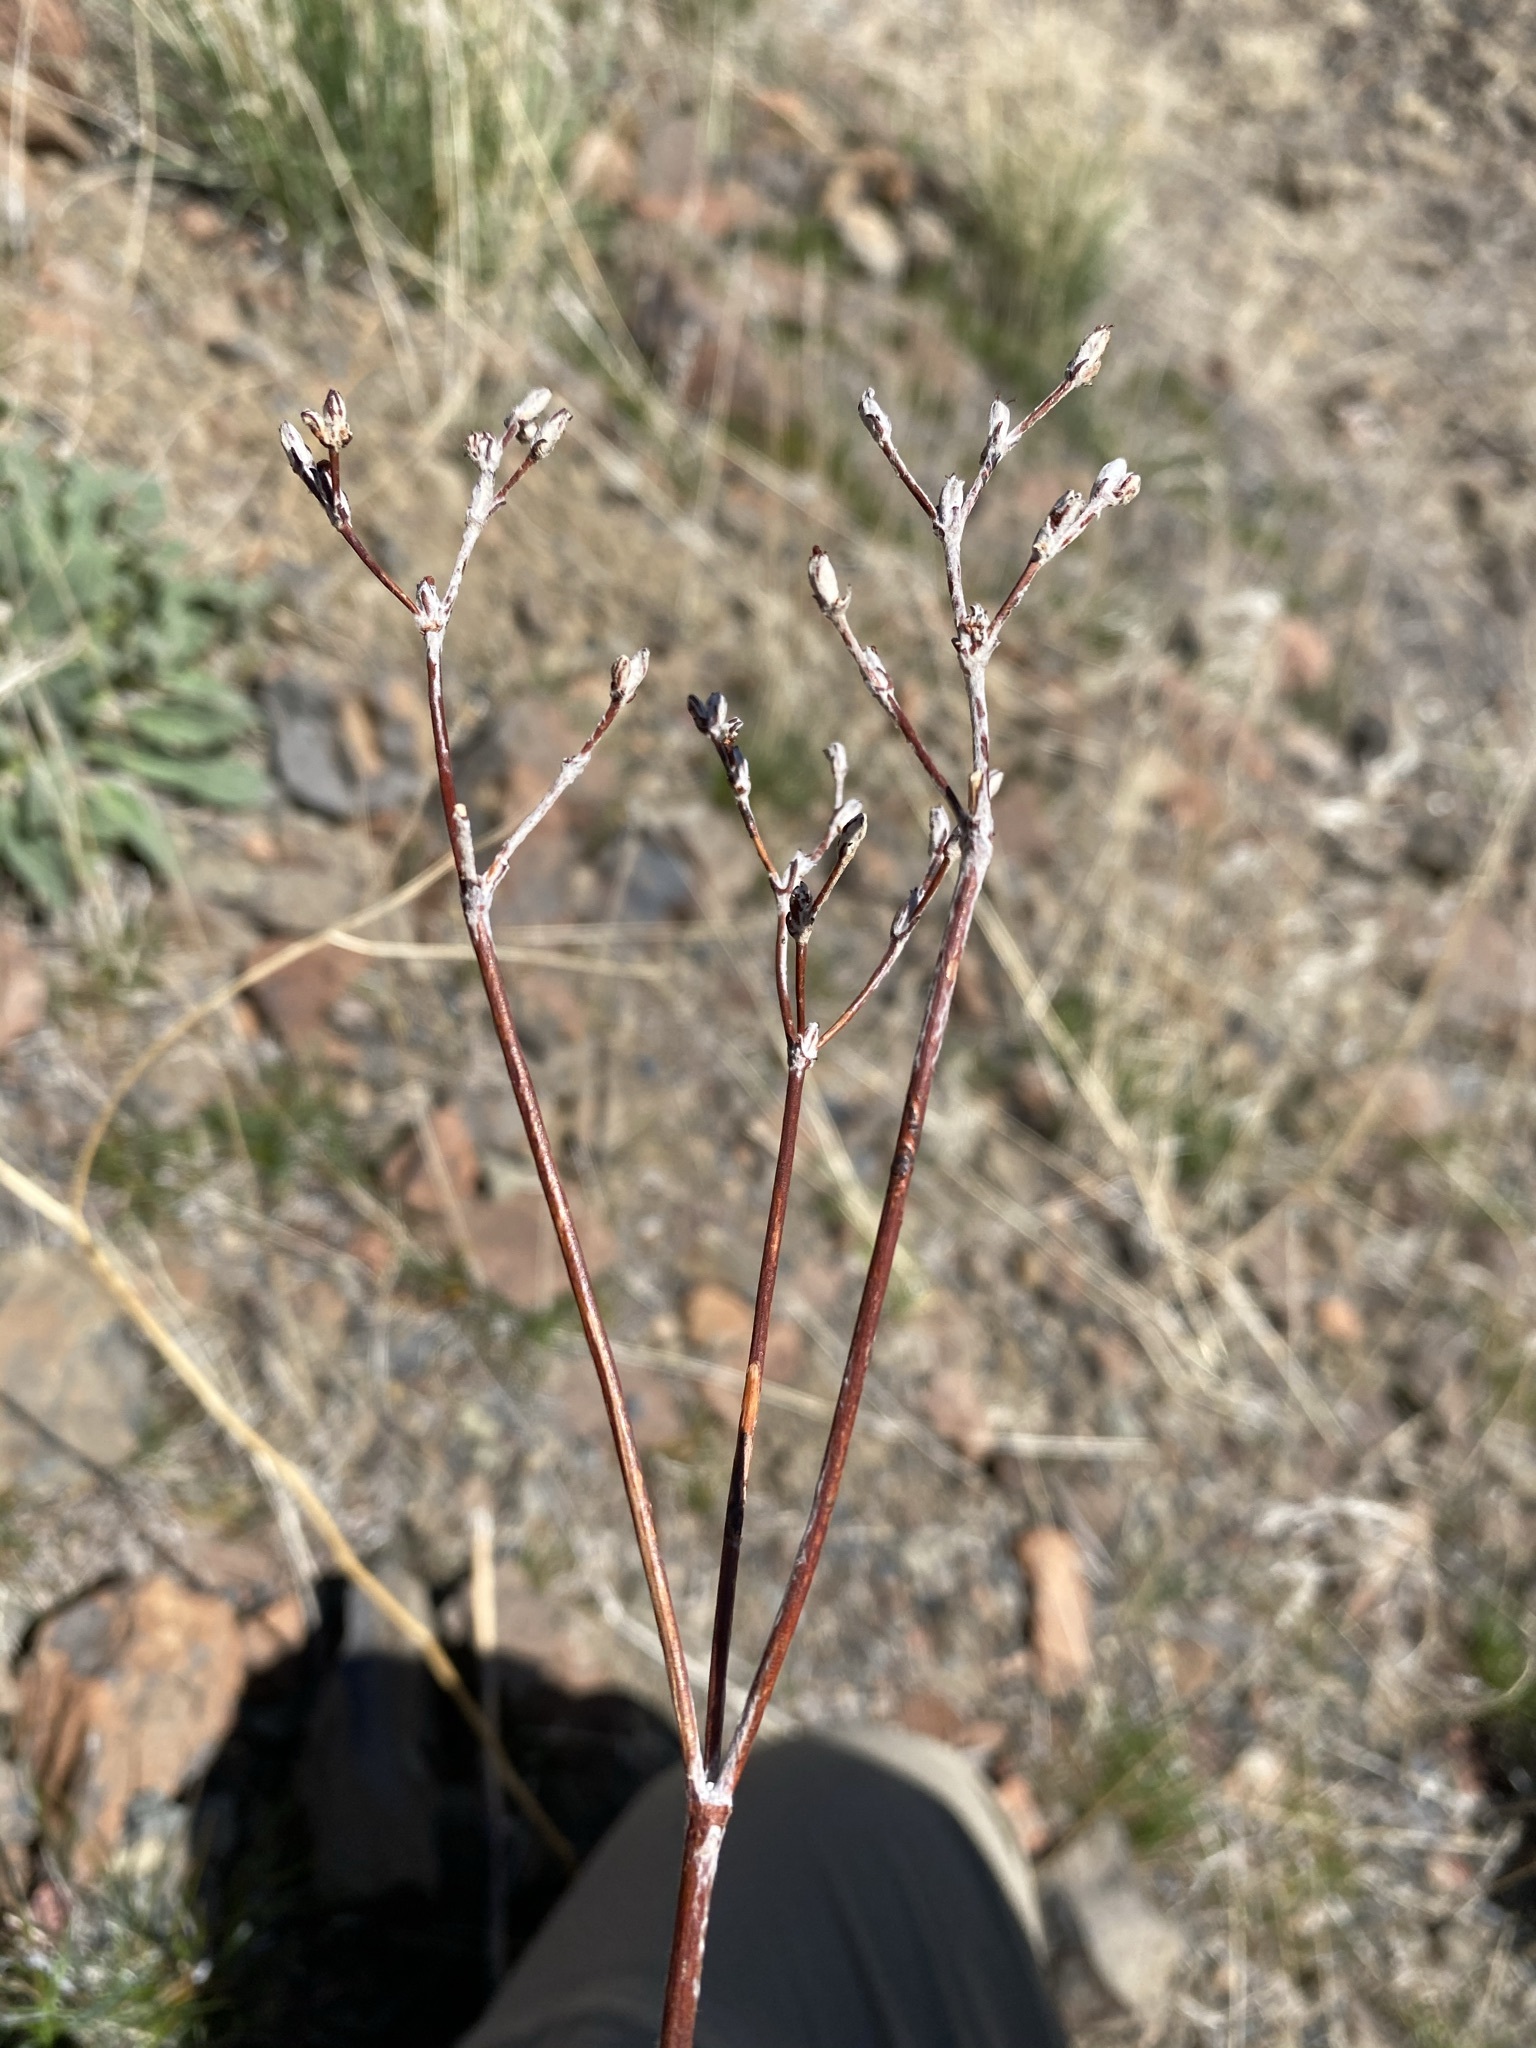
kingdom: Plantae
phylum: Tracheophyta
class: Magnoliopsida
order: Caryophyllales
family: Polygonaceae
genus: Eriogonum
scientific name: Eriogonum strictum
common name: Blue mountain buckwheat
